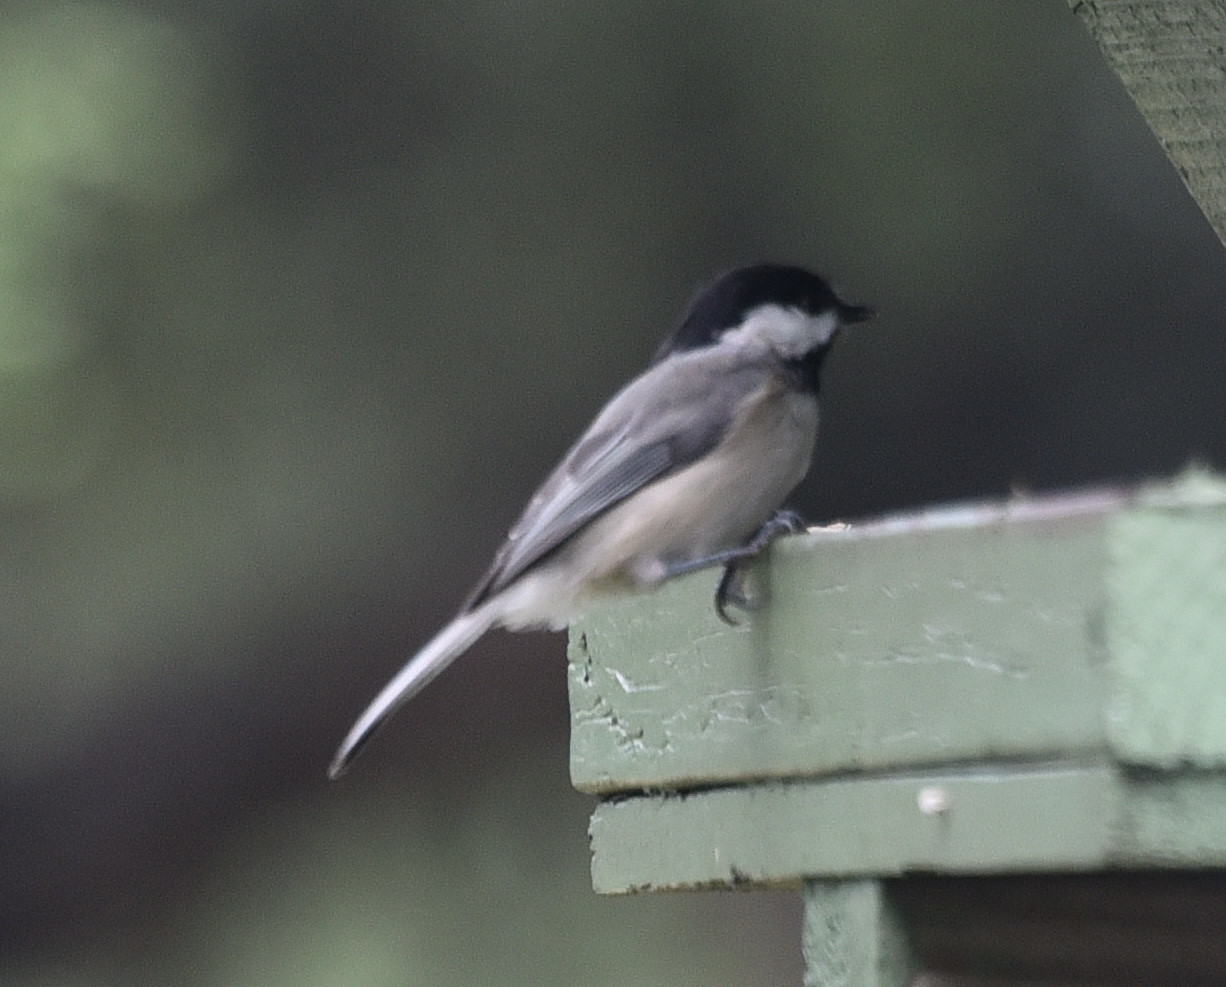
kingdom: Animalia
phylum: Chordata
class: Aves
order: Passeriformes
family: Paridae
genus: Poecile
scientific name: Poecile carolinensis
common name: Carolina chickadee
